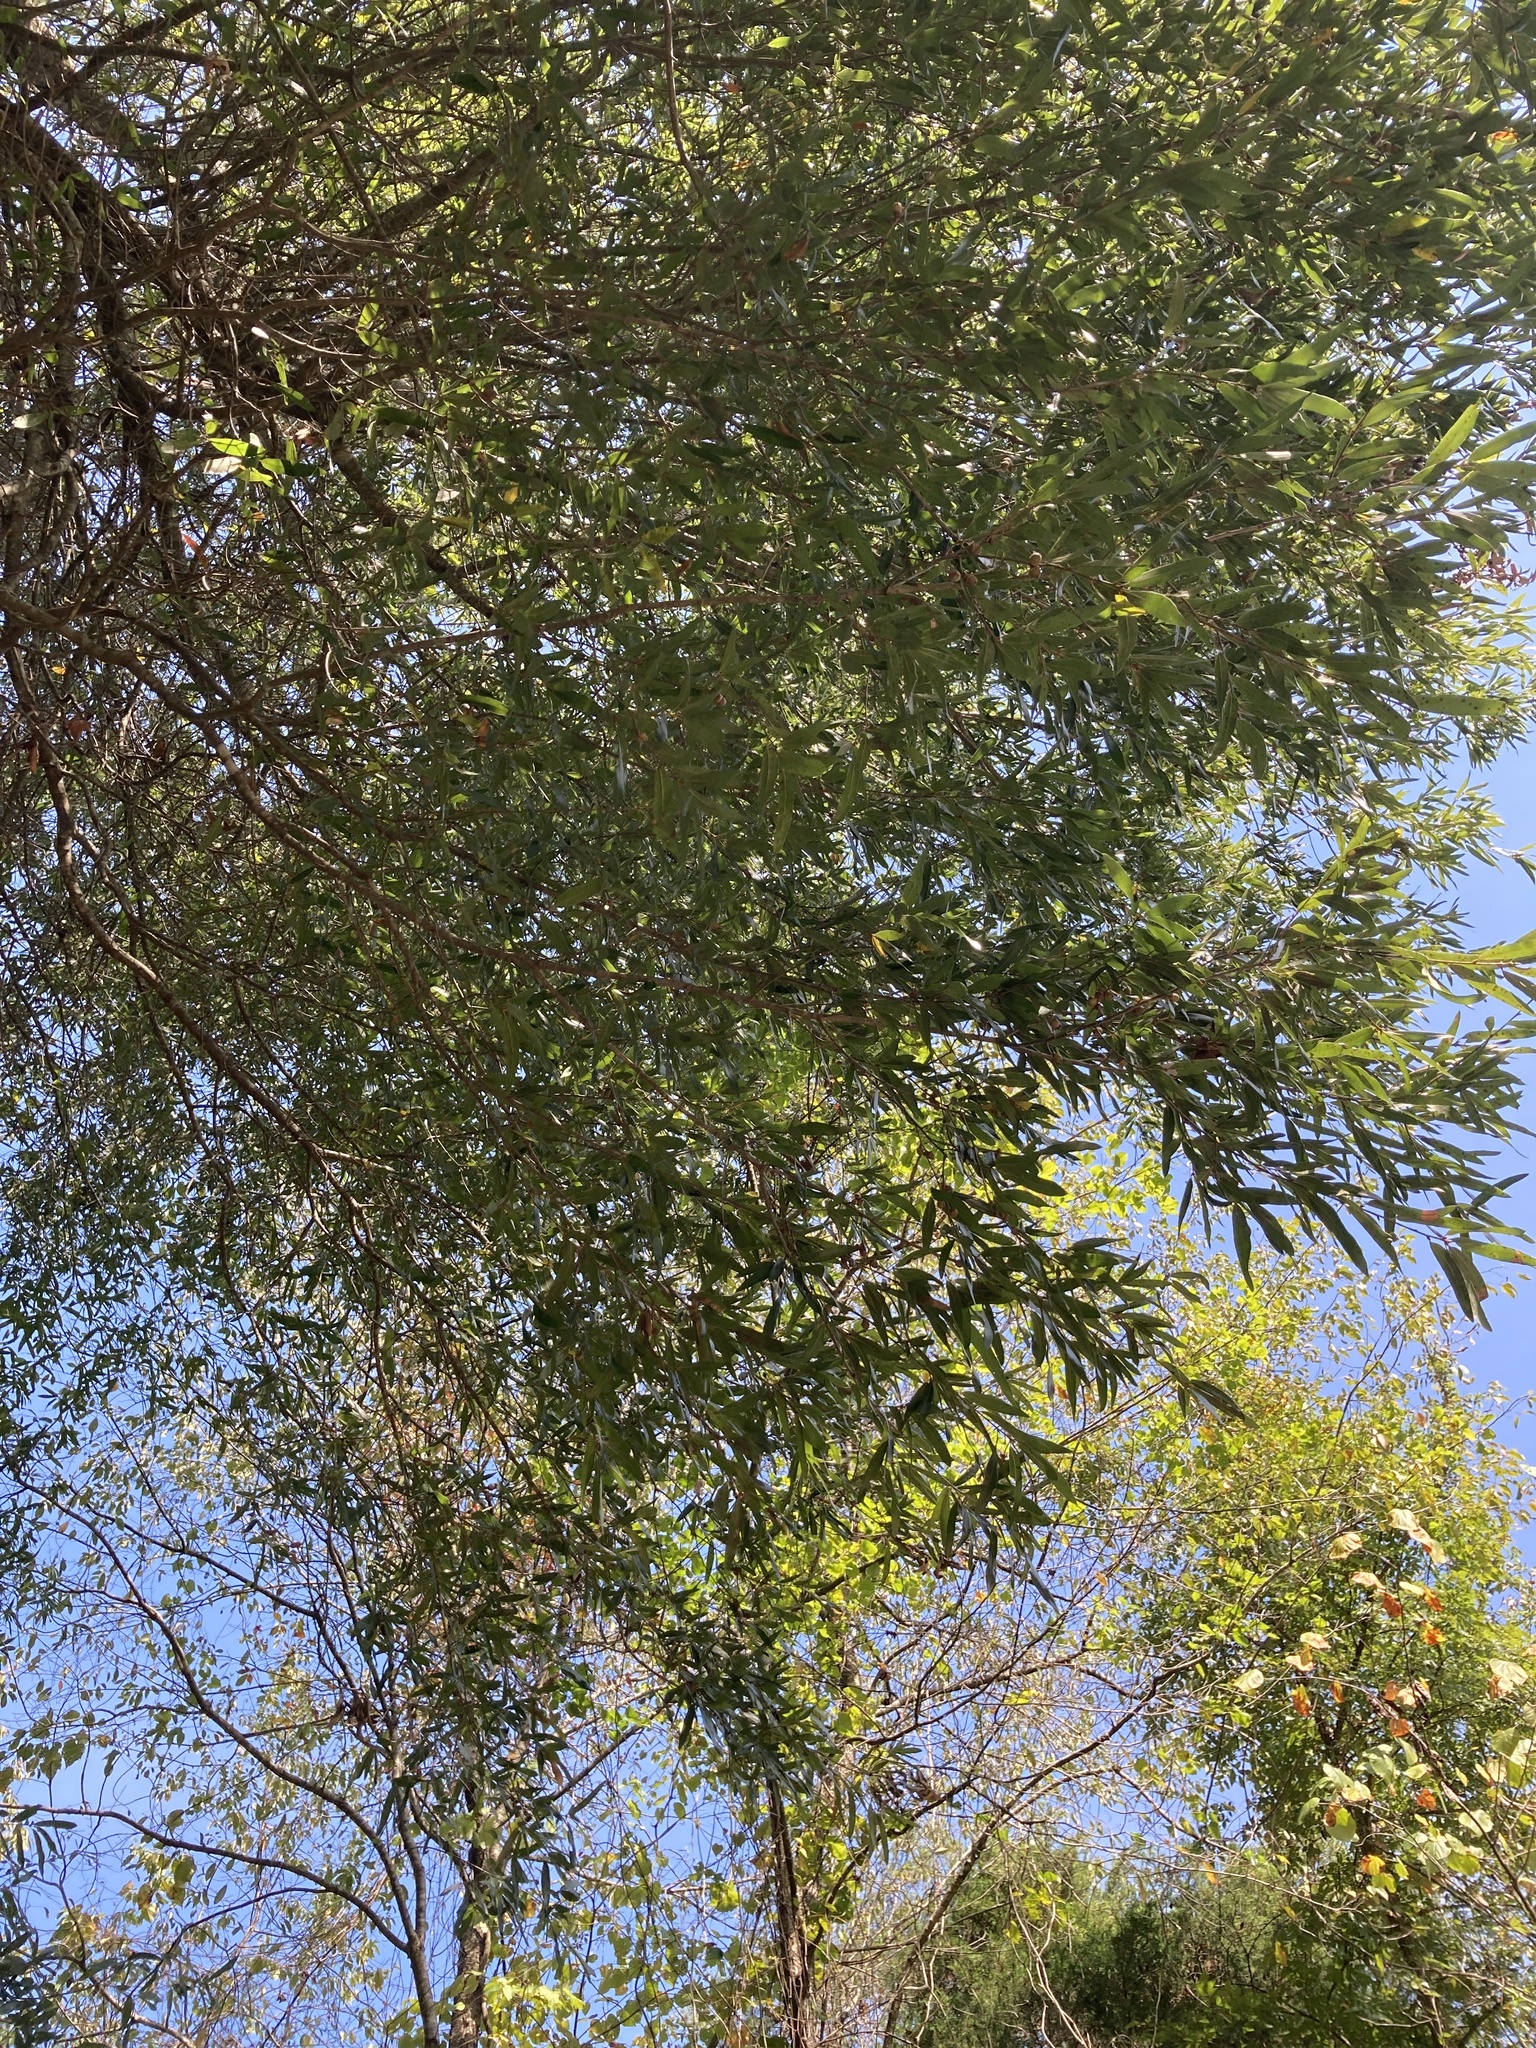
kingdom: Plantae
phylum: Tracheophyta
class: Magnoliopsida
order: Fagales
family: Fagaceae
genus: Quercus
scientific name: Quercus phellos
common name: Willow oak
